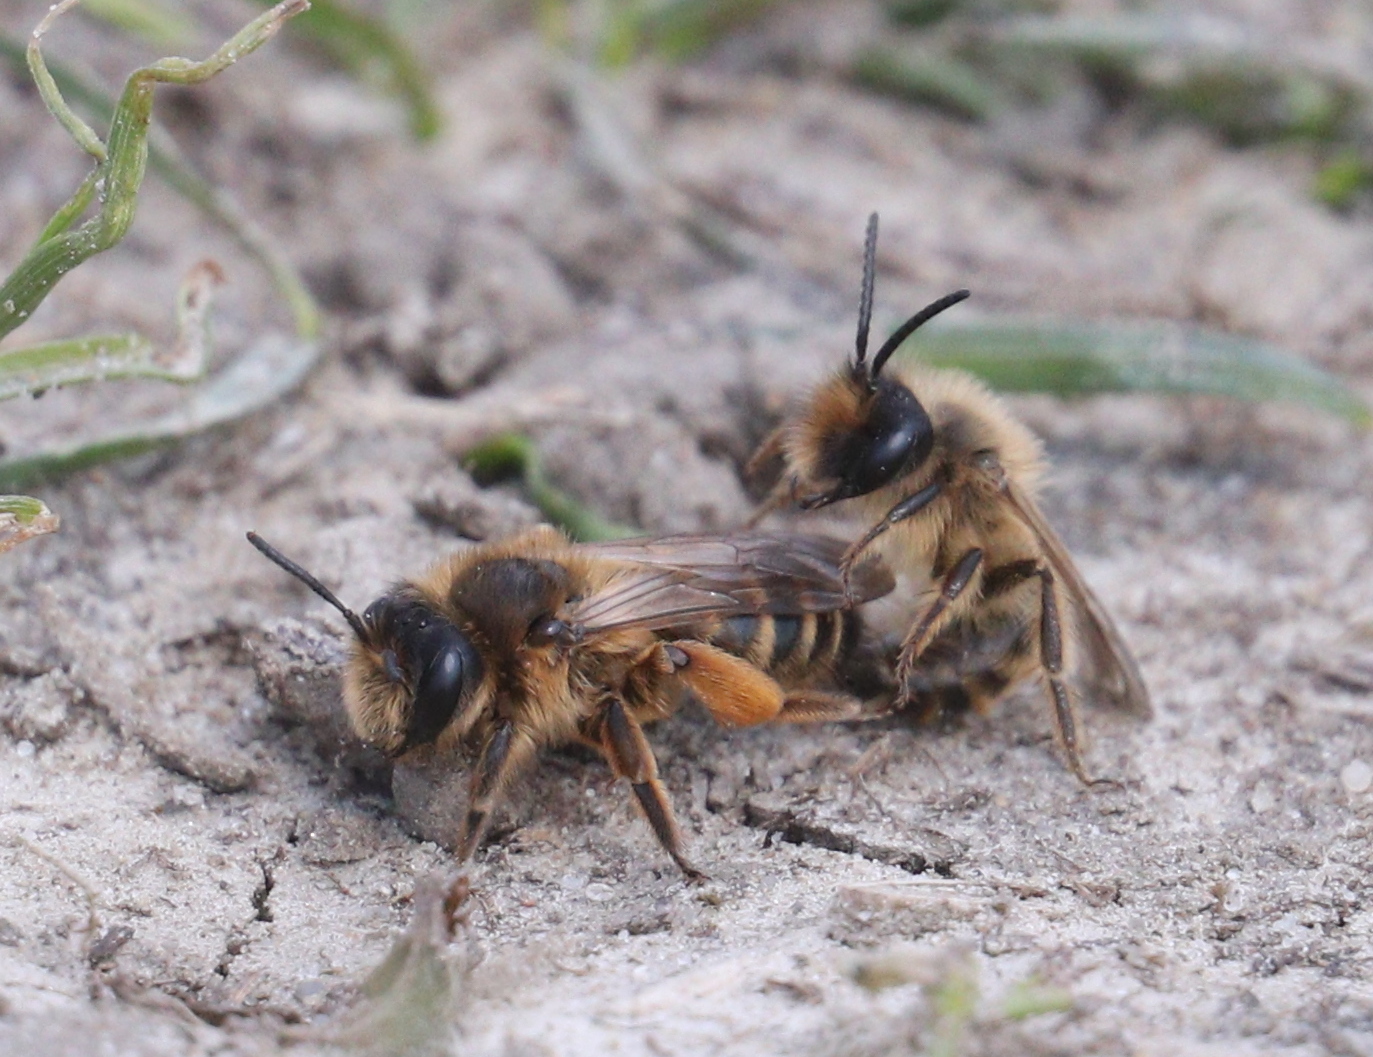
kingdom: Animalia
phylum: Arthropoda
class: Insecta
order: Hymenoptera
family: Andrenidae
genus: Andrena
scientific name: Andrena flavipes
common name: Yellow-legged mining bee
